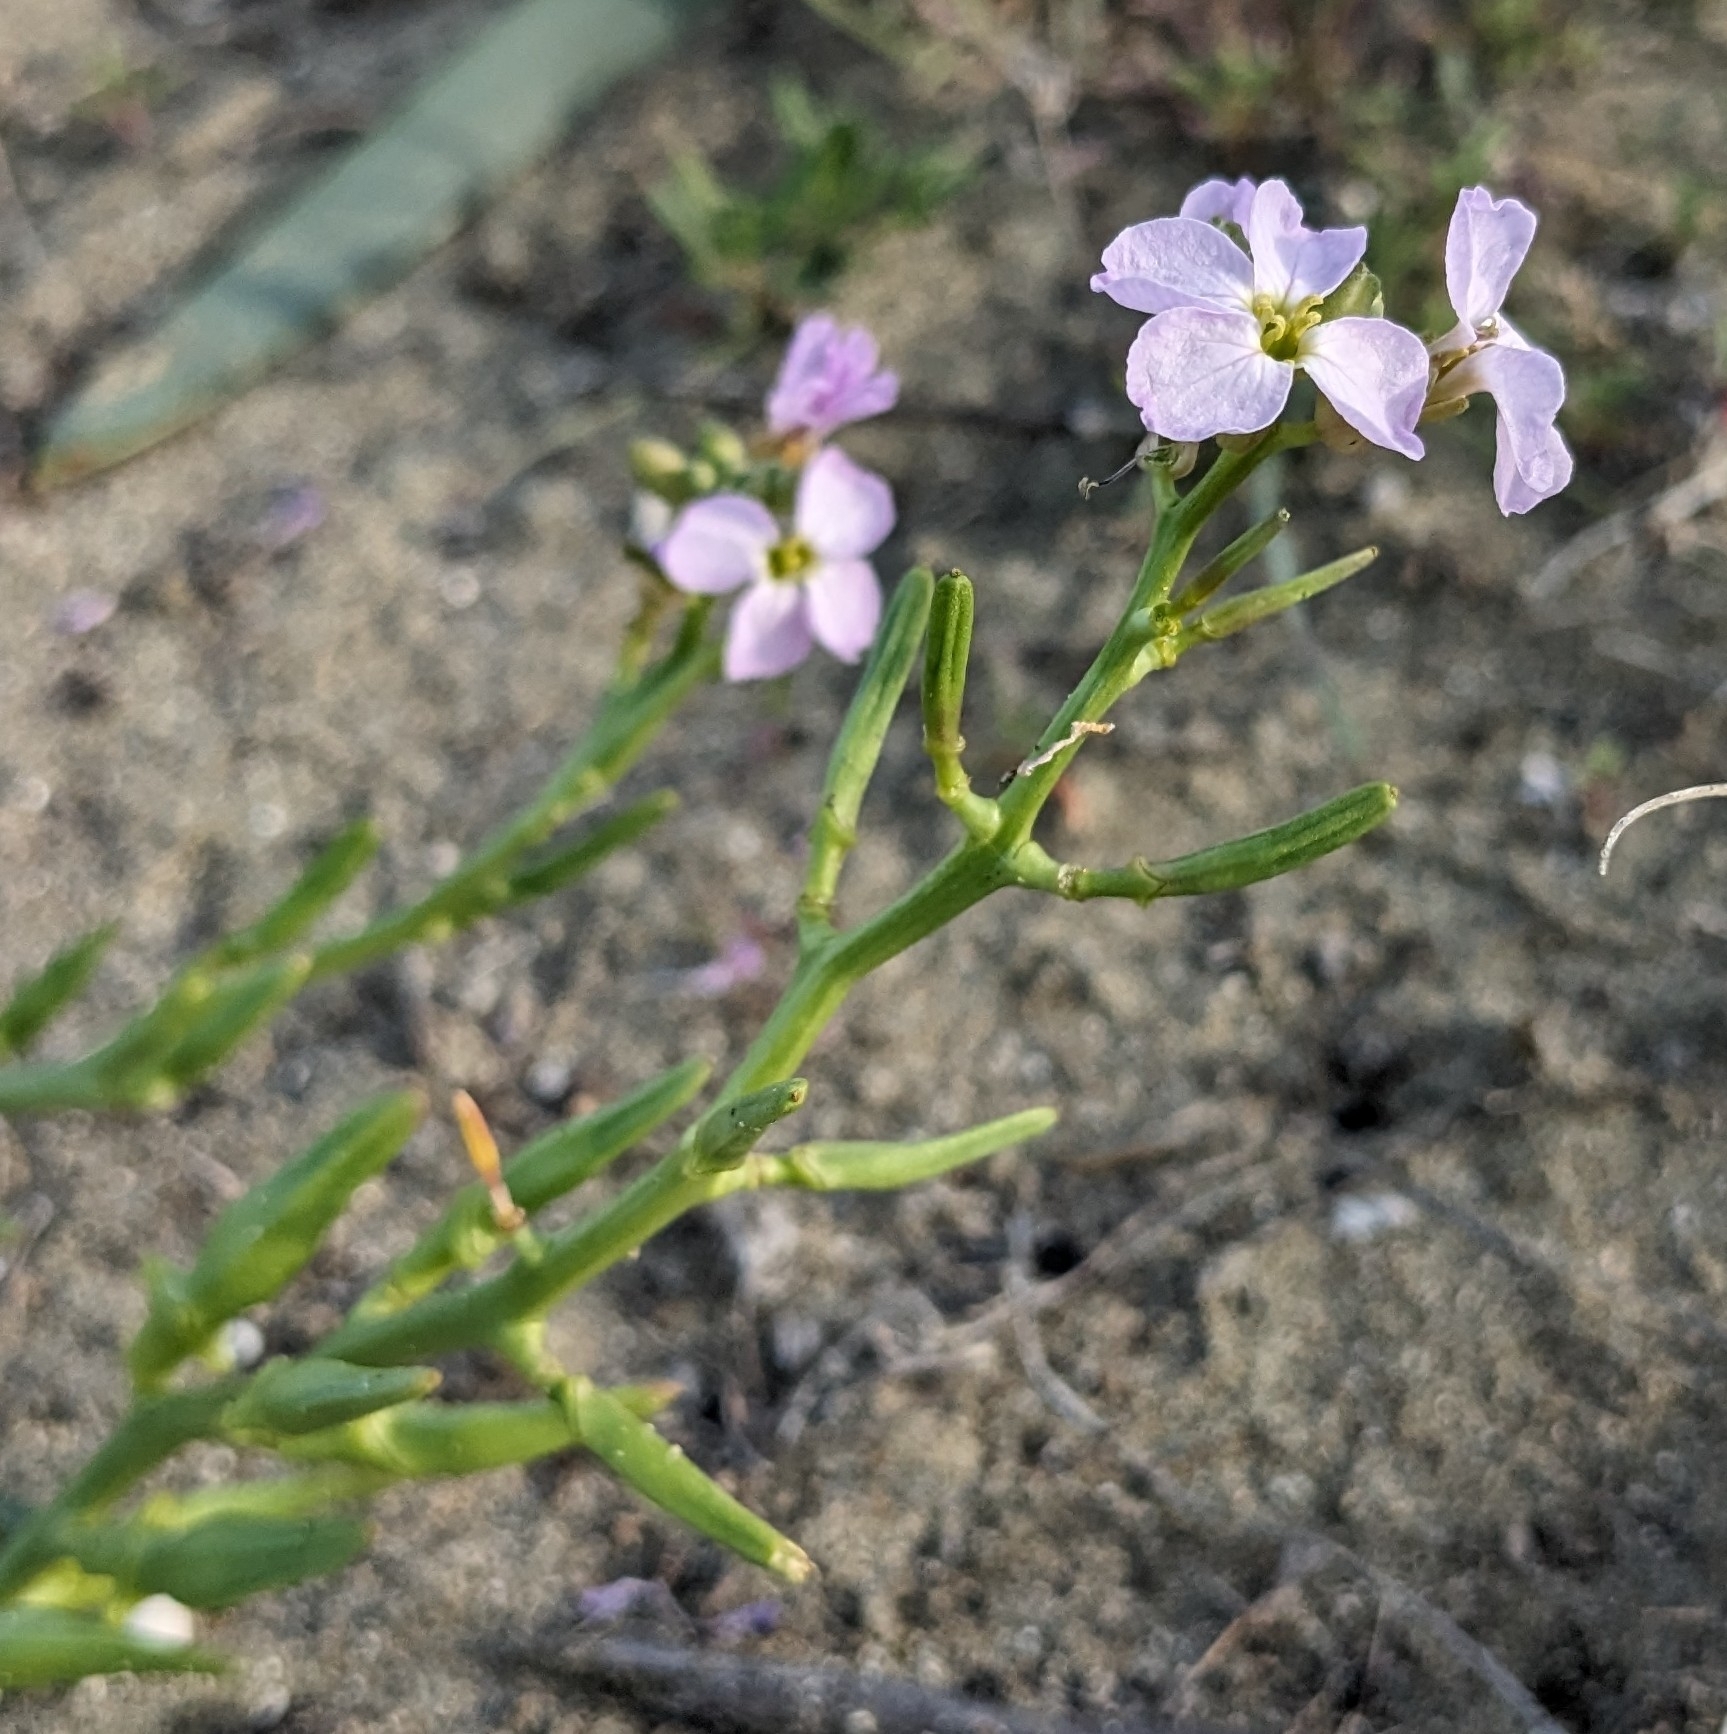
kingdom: Plantae
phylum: Tracheophyta
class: Magnoliopsida
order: Brassicales
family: Brassicaceae
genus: Cakile
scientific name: Cakile maritima
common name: Sea rocket
